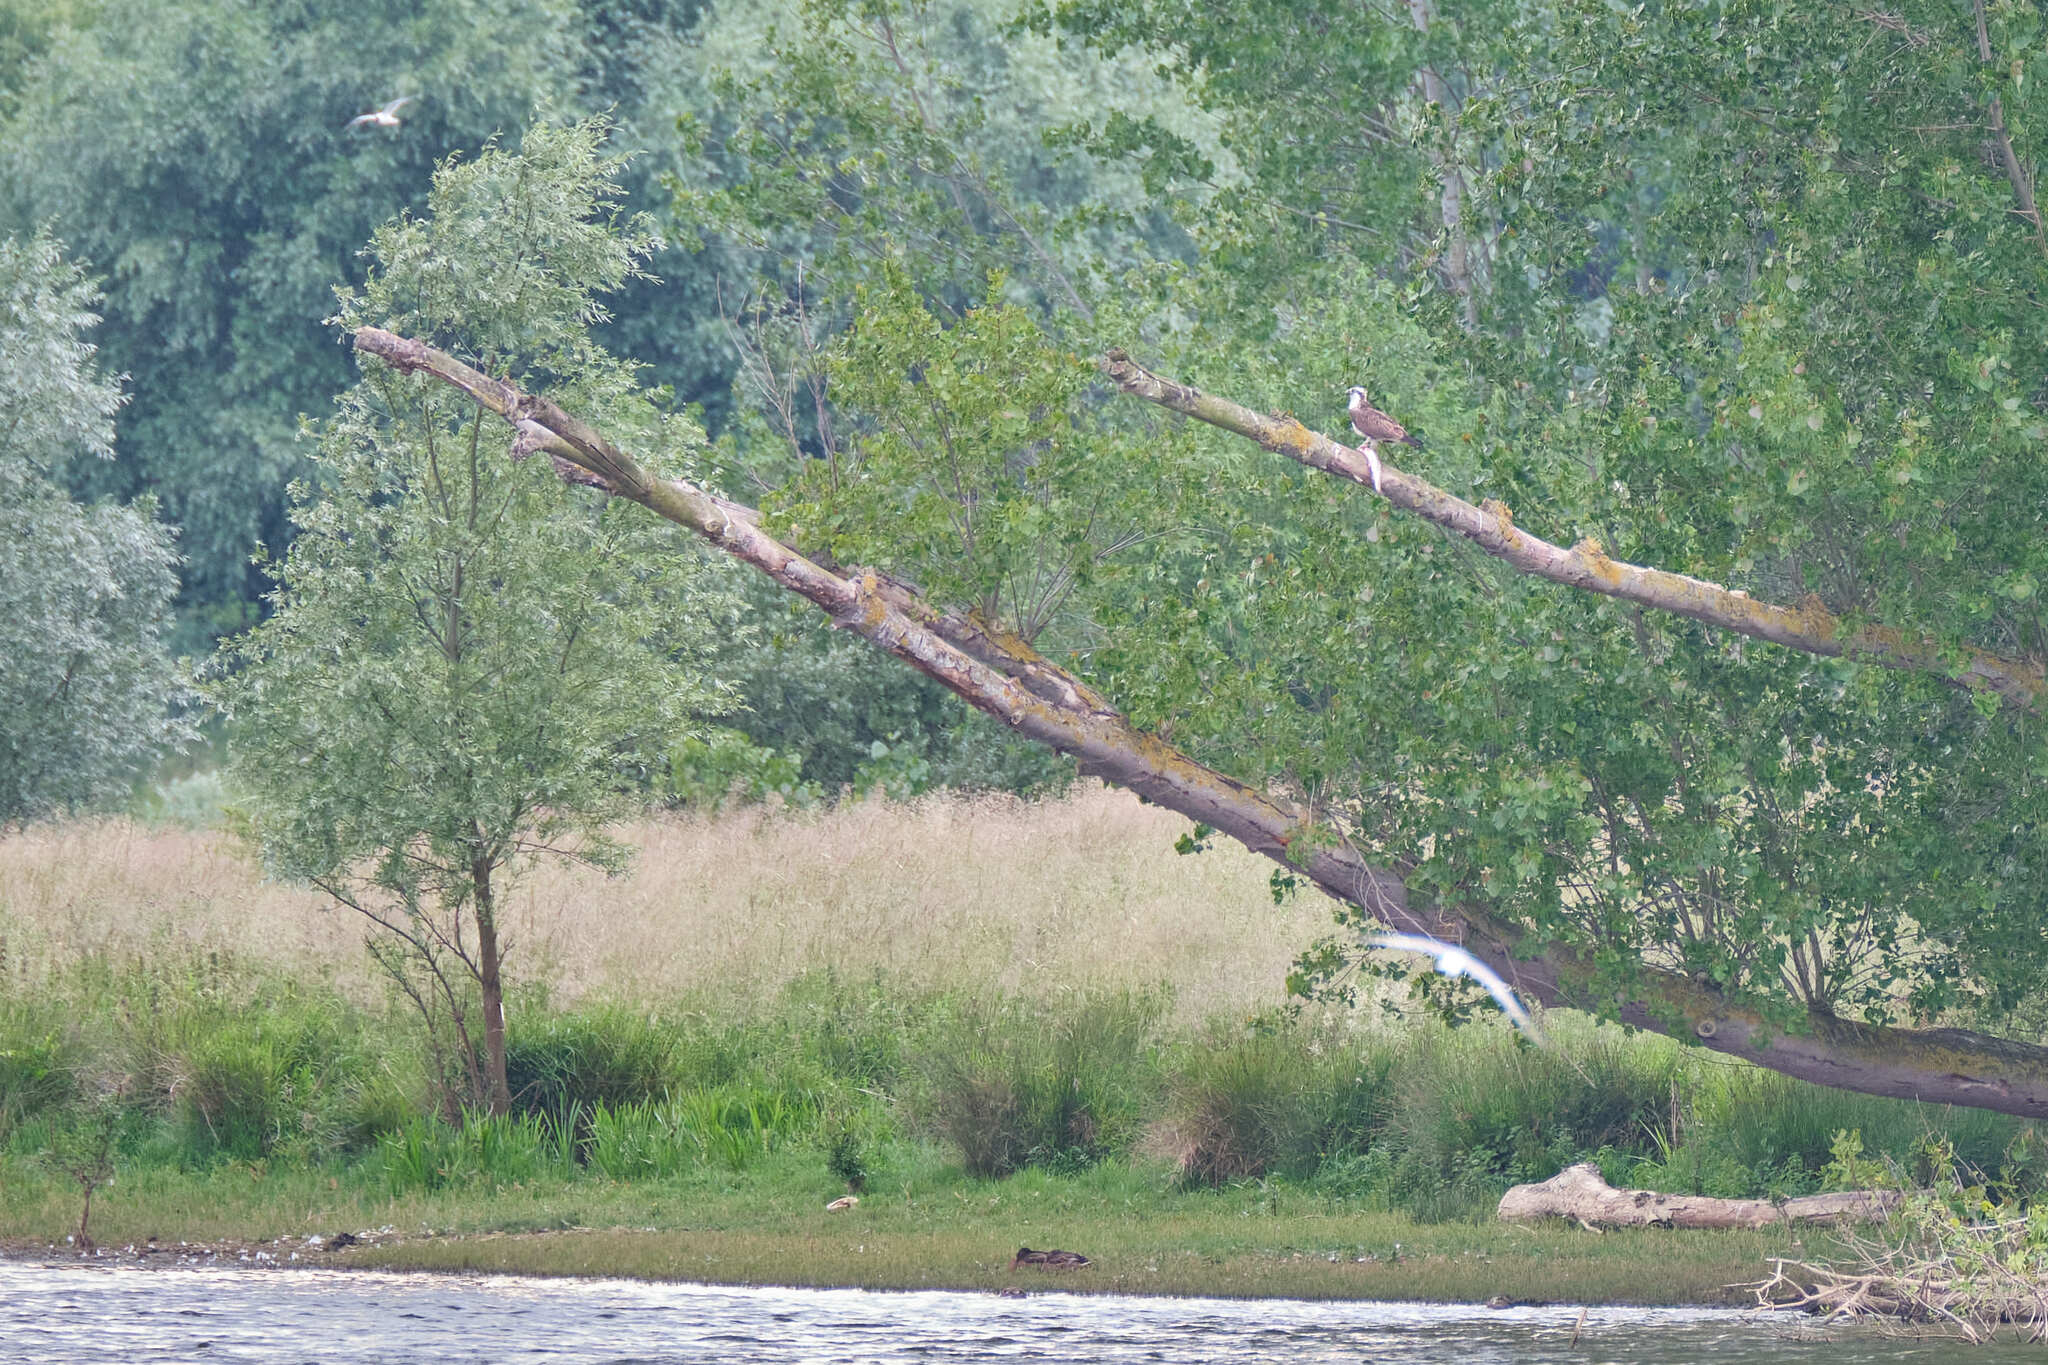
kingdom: Animalia
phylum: Chordata
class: Aves
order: Accipitriformes
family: Pandionidae
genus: Pandion
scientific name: Pandion haliaetus
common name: Osprey
